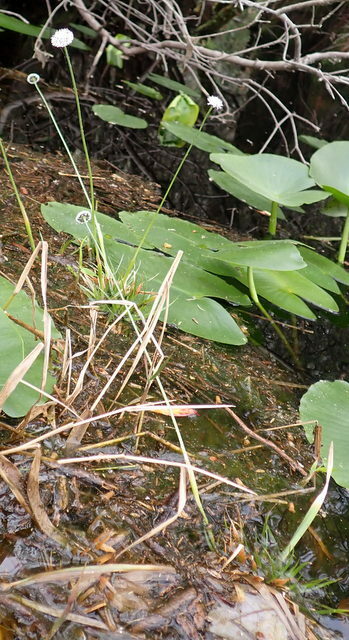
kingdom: Plantae
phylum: Tracheophyta
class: Liliopsida
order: Poales
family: Eriocaulaceae
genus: Eriocaulon
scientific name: Eriocaulon compressum
